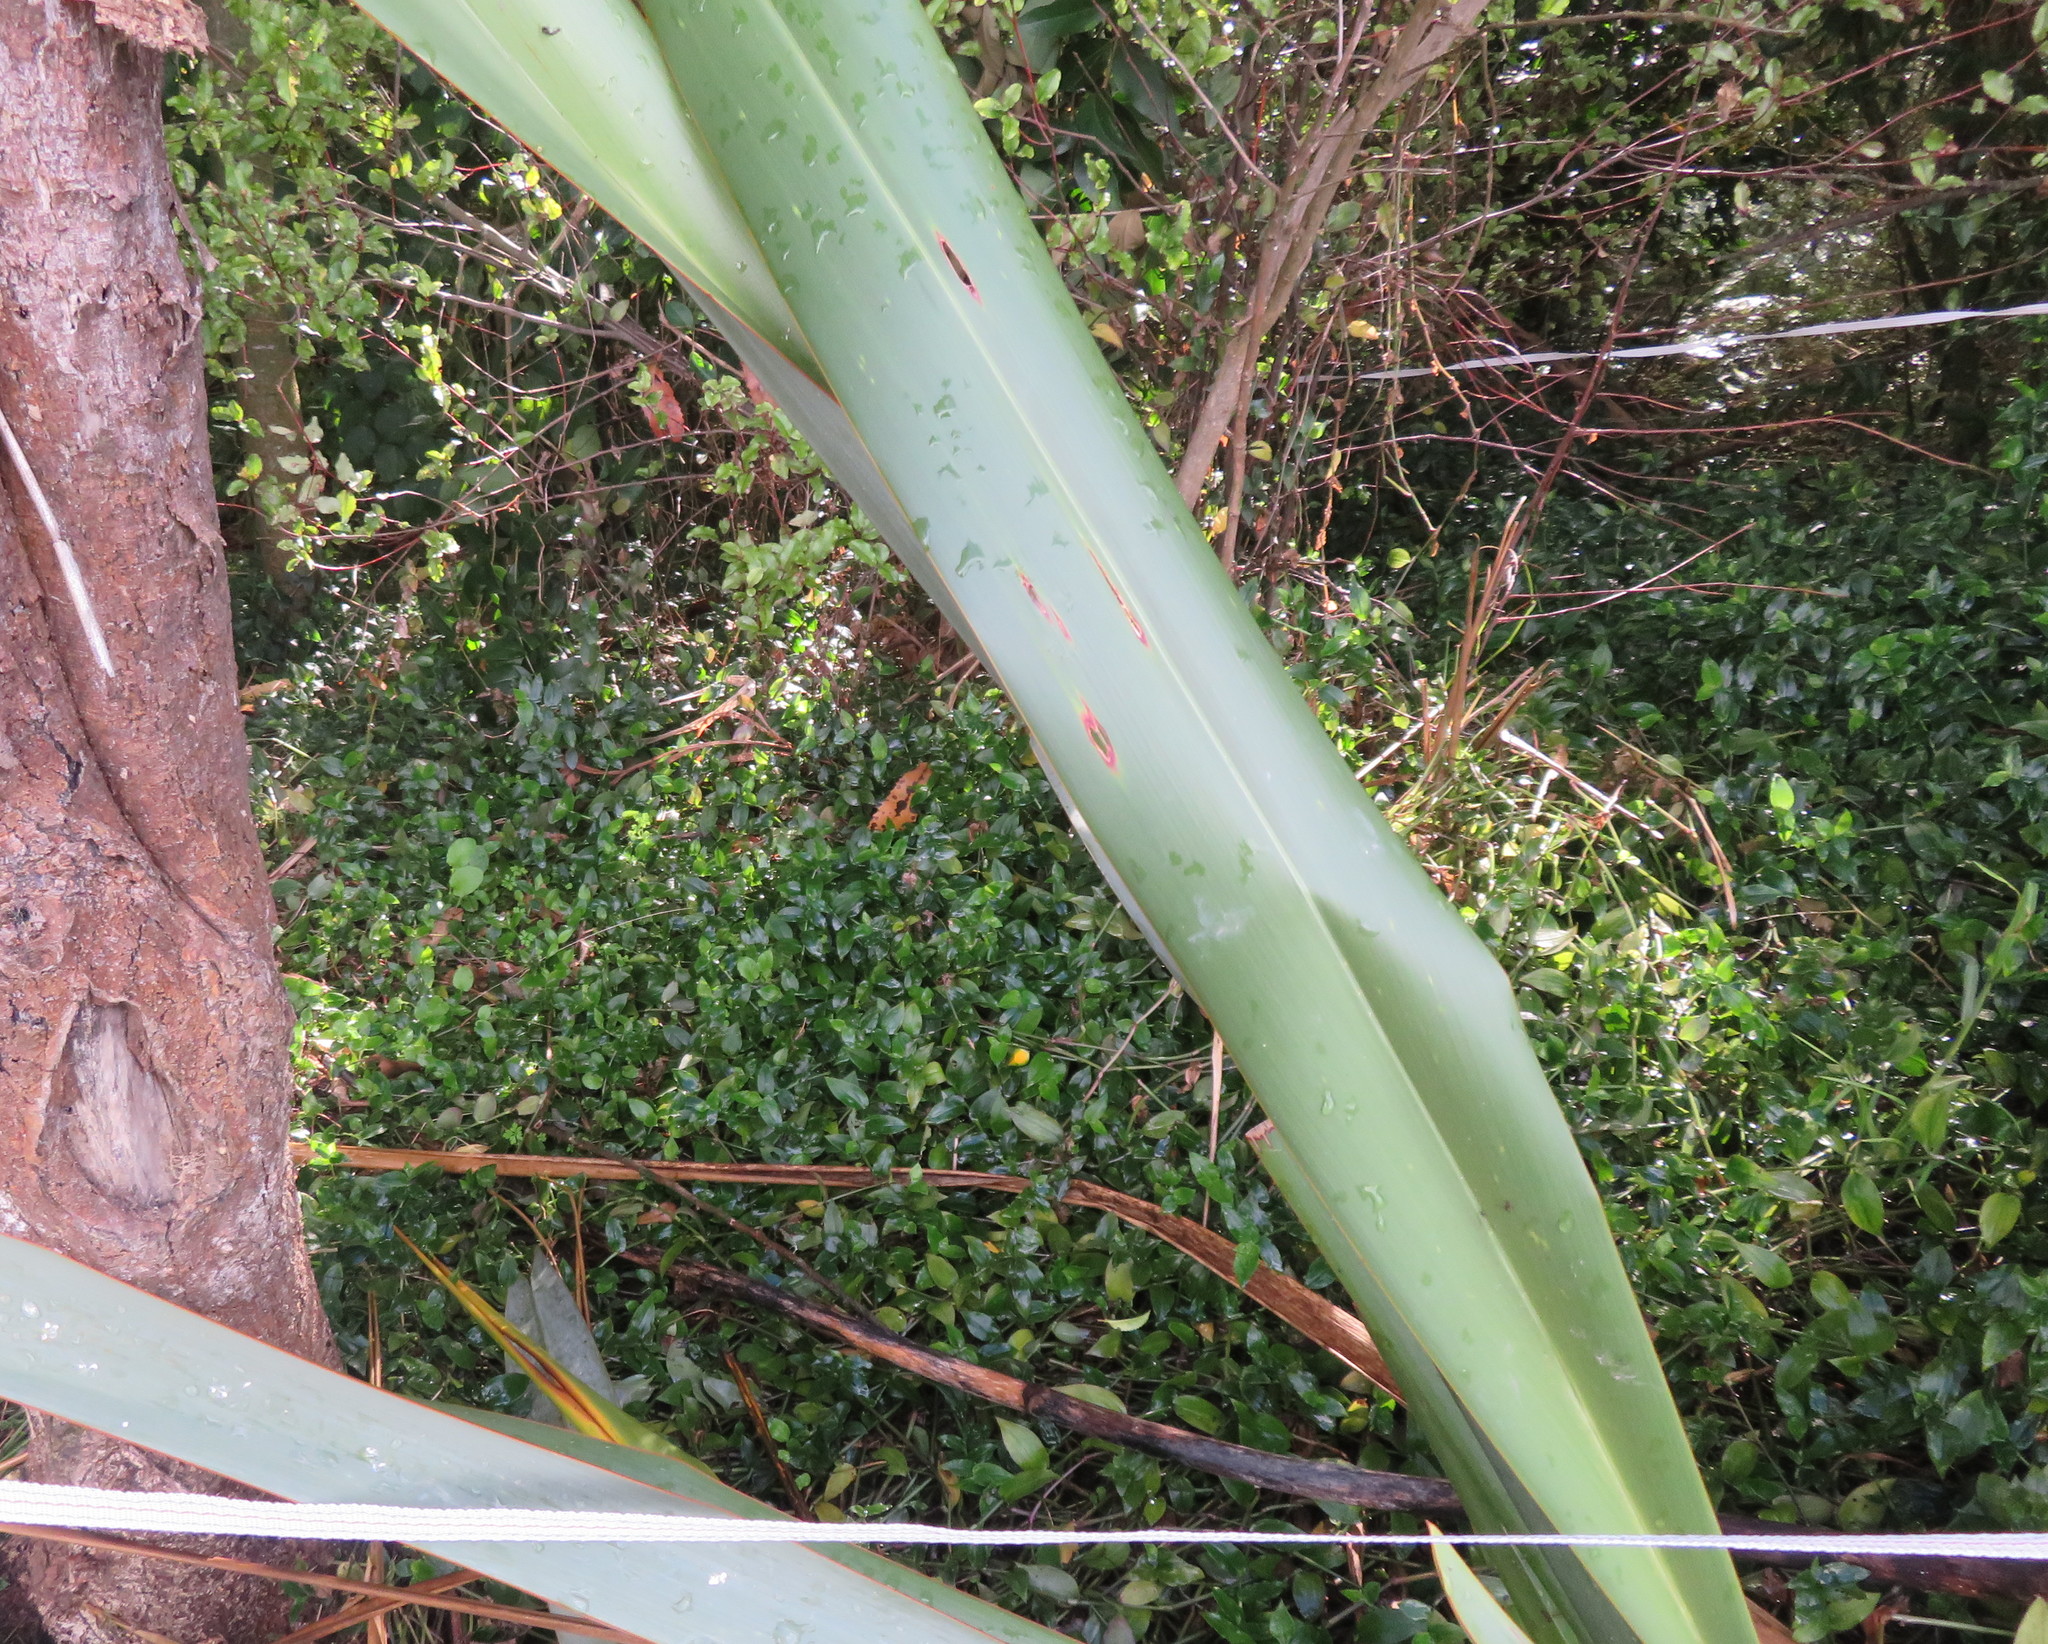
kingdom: Plantae
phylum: Tracheophyta
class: Magnoliopsida
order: Ericales
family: Primulaceae
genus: Myrsine
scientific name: Myrsine australis
